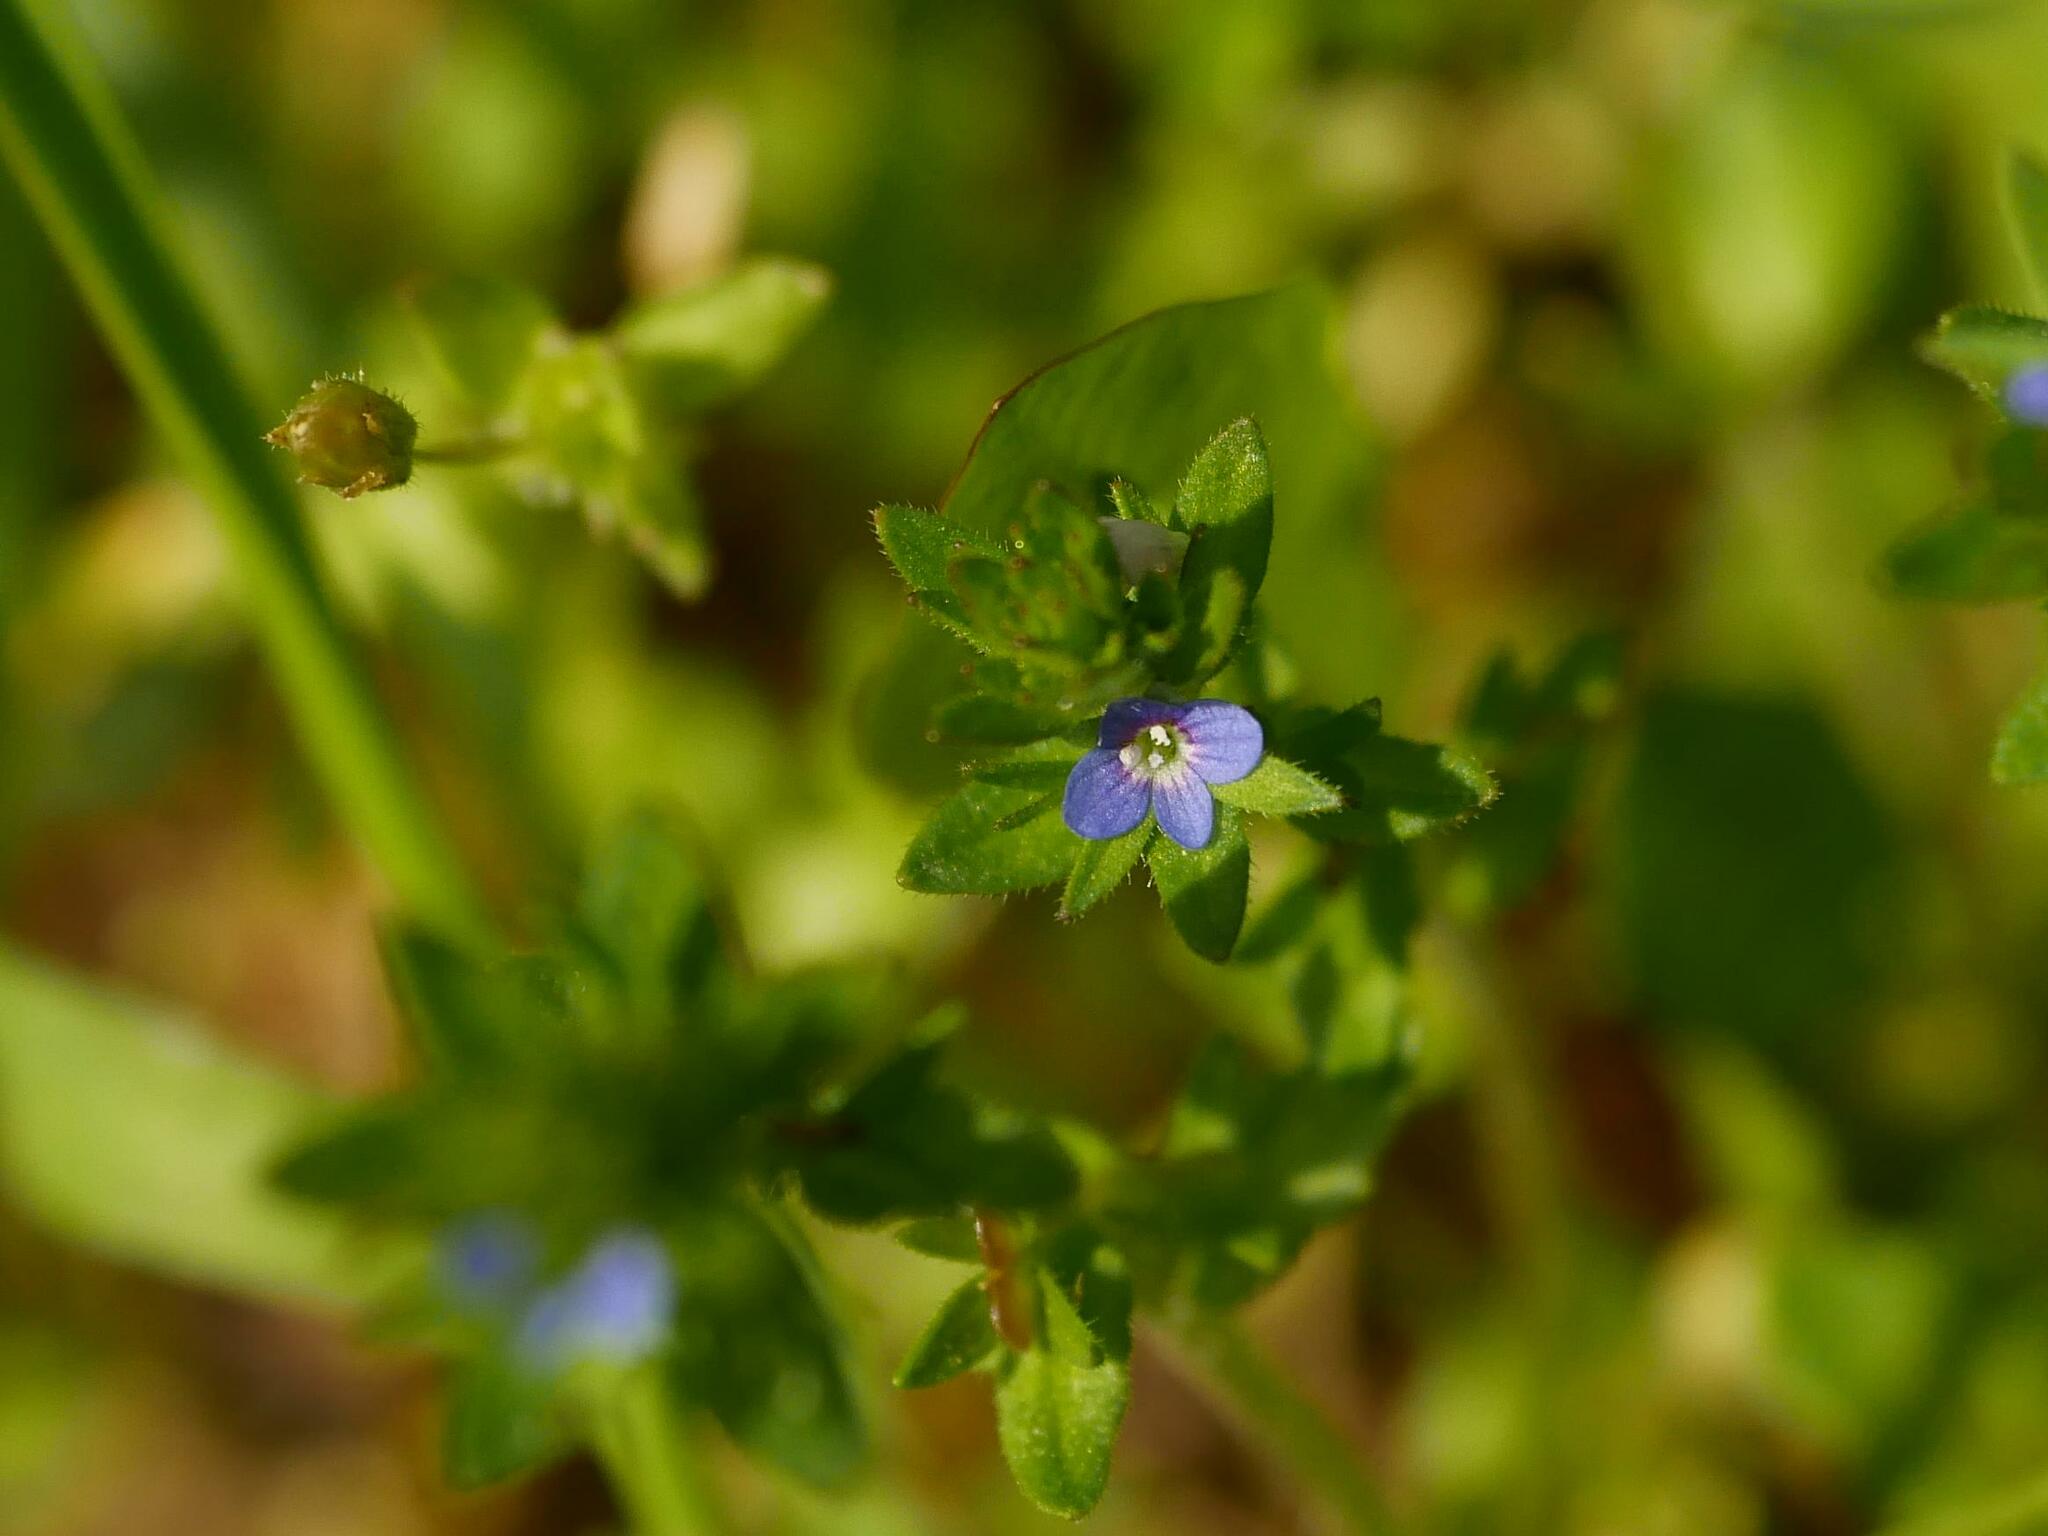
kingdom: Plantae
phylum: Tracheophyta
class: Magnoliopsida
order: Lamiales
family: Plantaginaceae
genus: Veronica
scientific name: Veronica arvensis
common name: Corn speedwell
